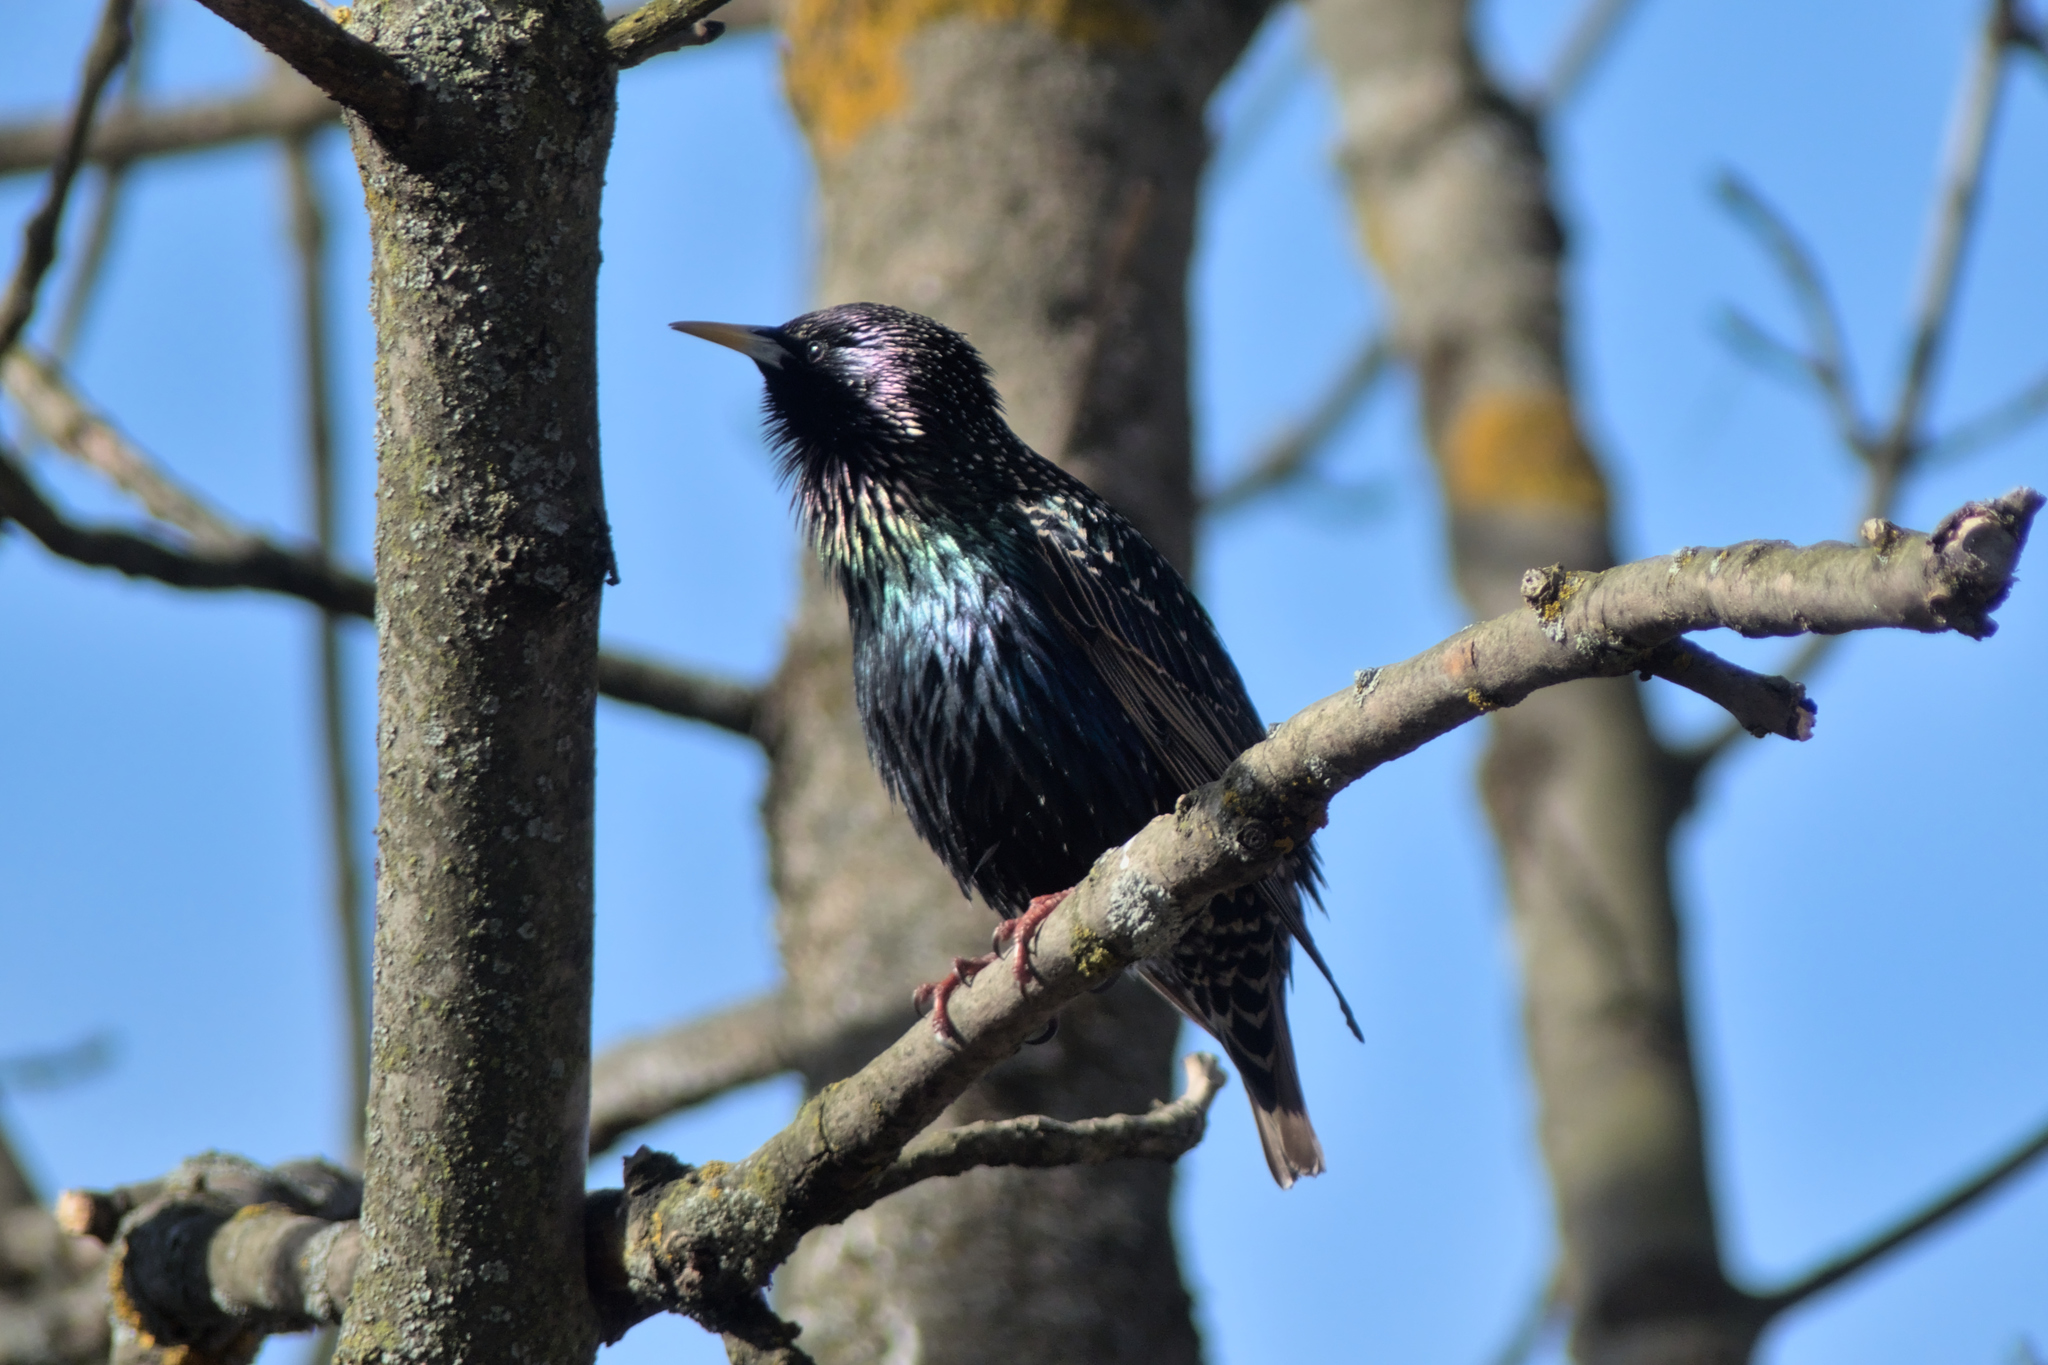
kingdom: Animalia
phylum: Chordata
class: Aves
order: Passeriformes
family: Sturnidae
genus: Sturnus
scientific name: Sturnus vulgaris
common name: Common starling
